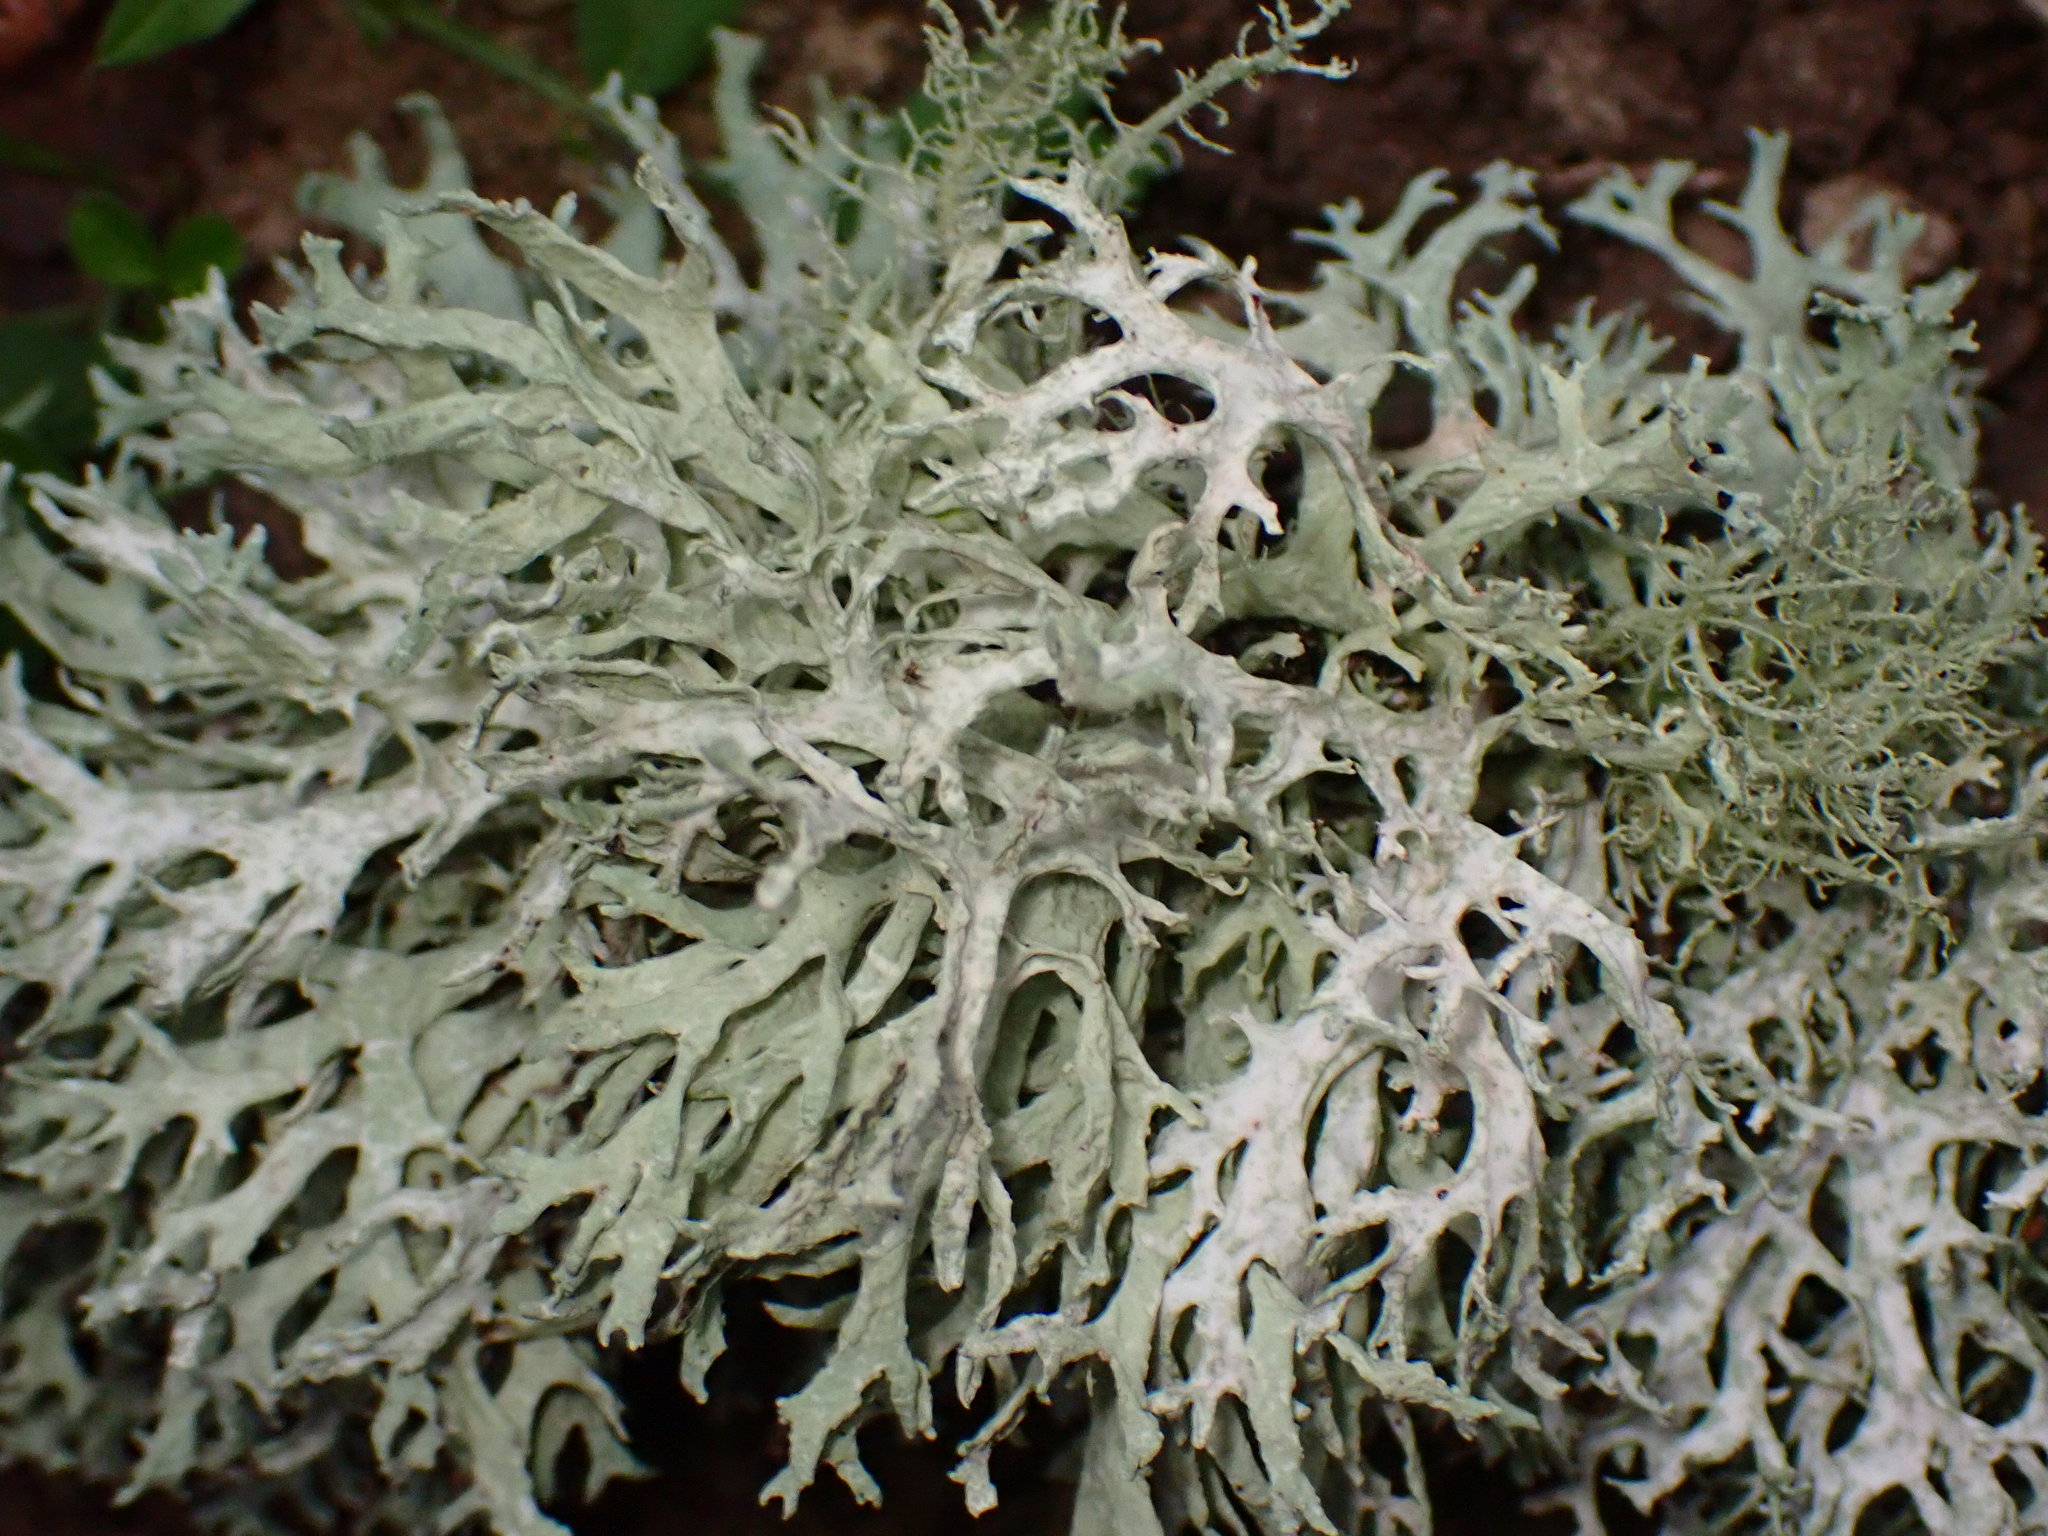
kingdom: Fungi
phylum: Ascomycota
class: Lecanoromycetes
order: Lecanorales
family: Parmeliaceae
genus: Evernia
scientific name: Evernia prunastri
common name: Oak moss
